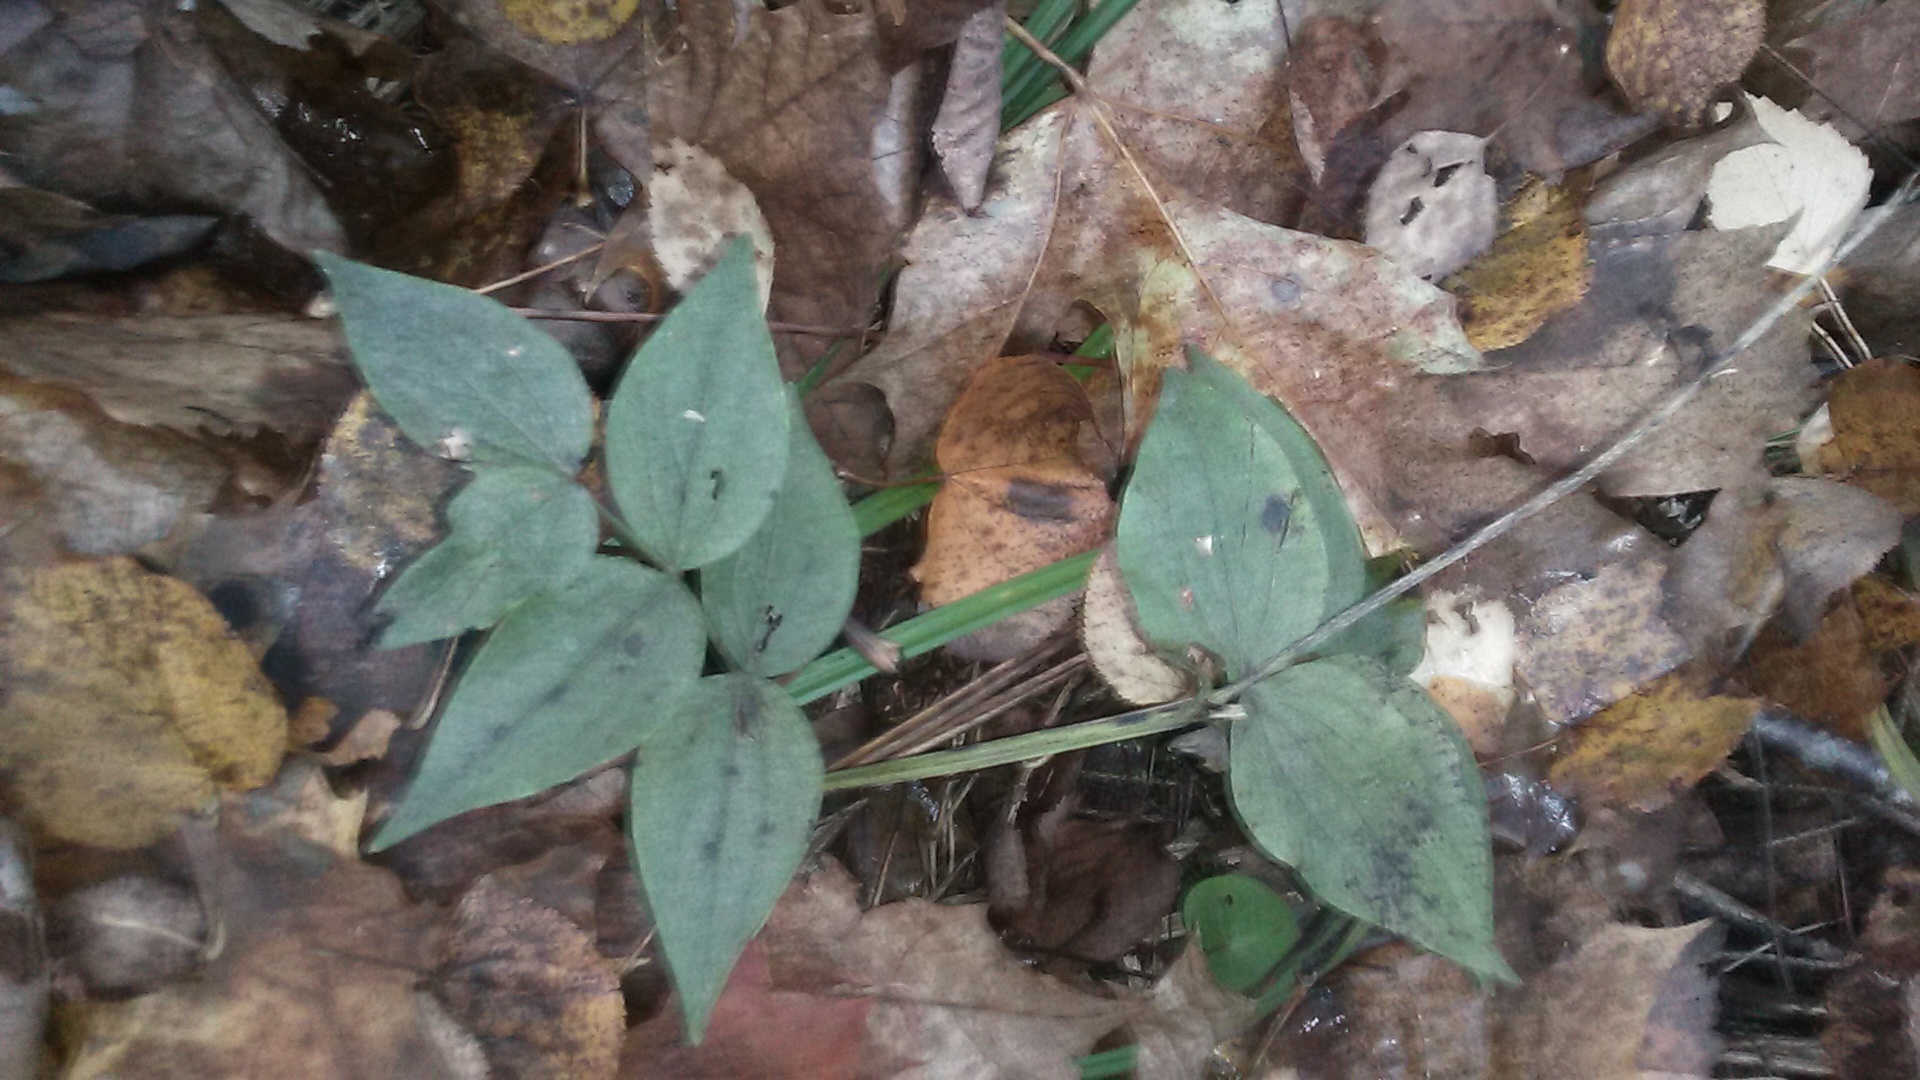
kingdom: Plantae
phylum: Tracheophyta
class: Magnoliopsida
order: Fabales
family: Fabaceae
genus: Lathyrus
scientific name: Lathyrus vernus
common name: Spring pea
